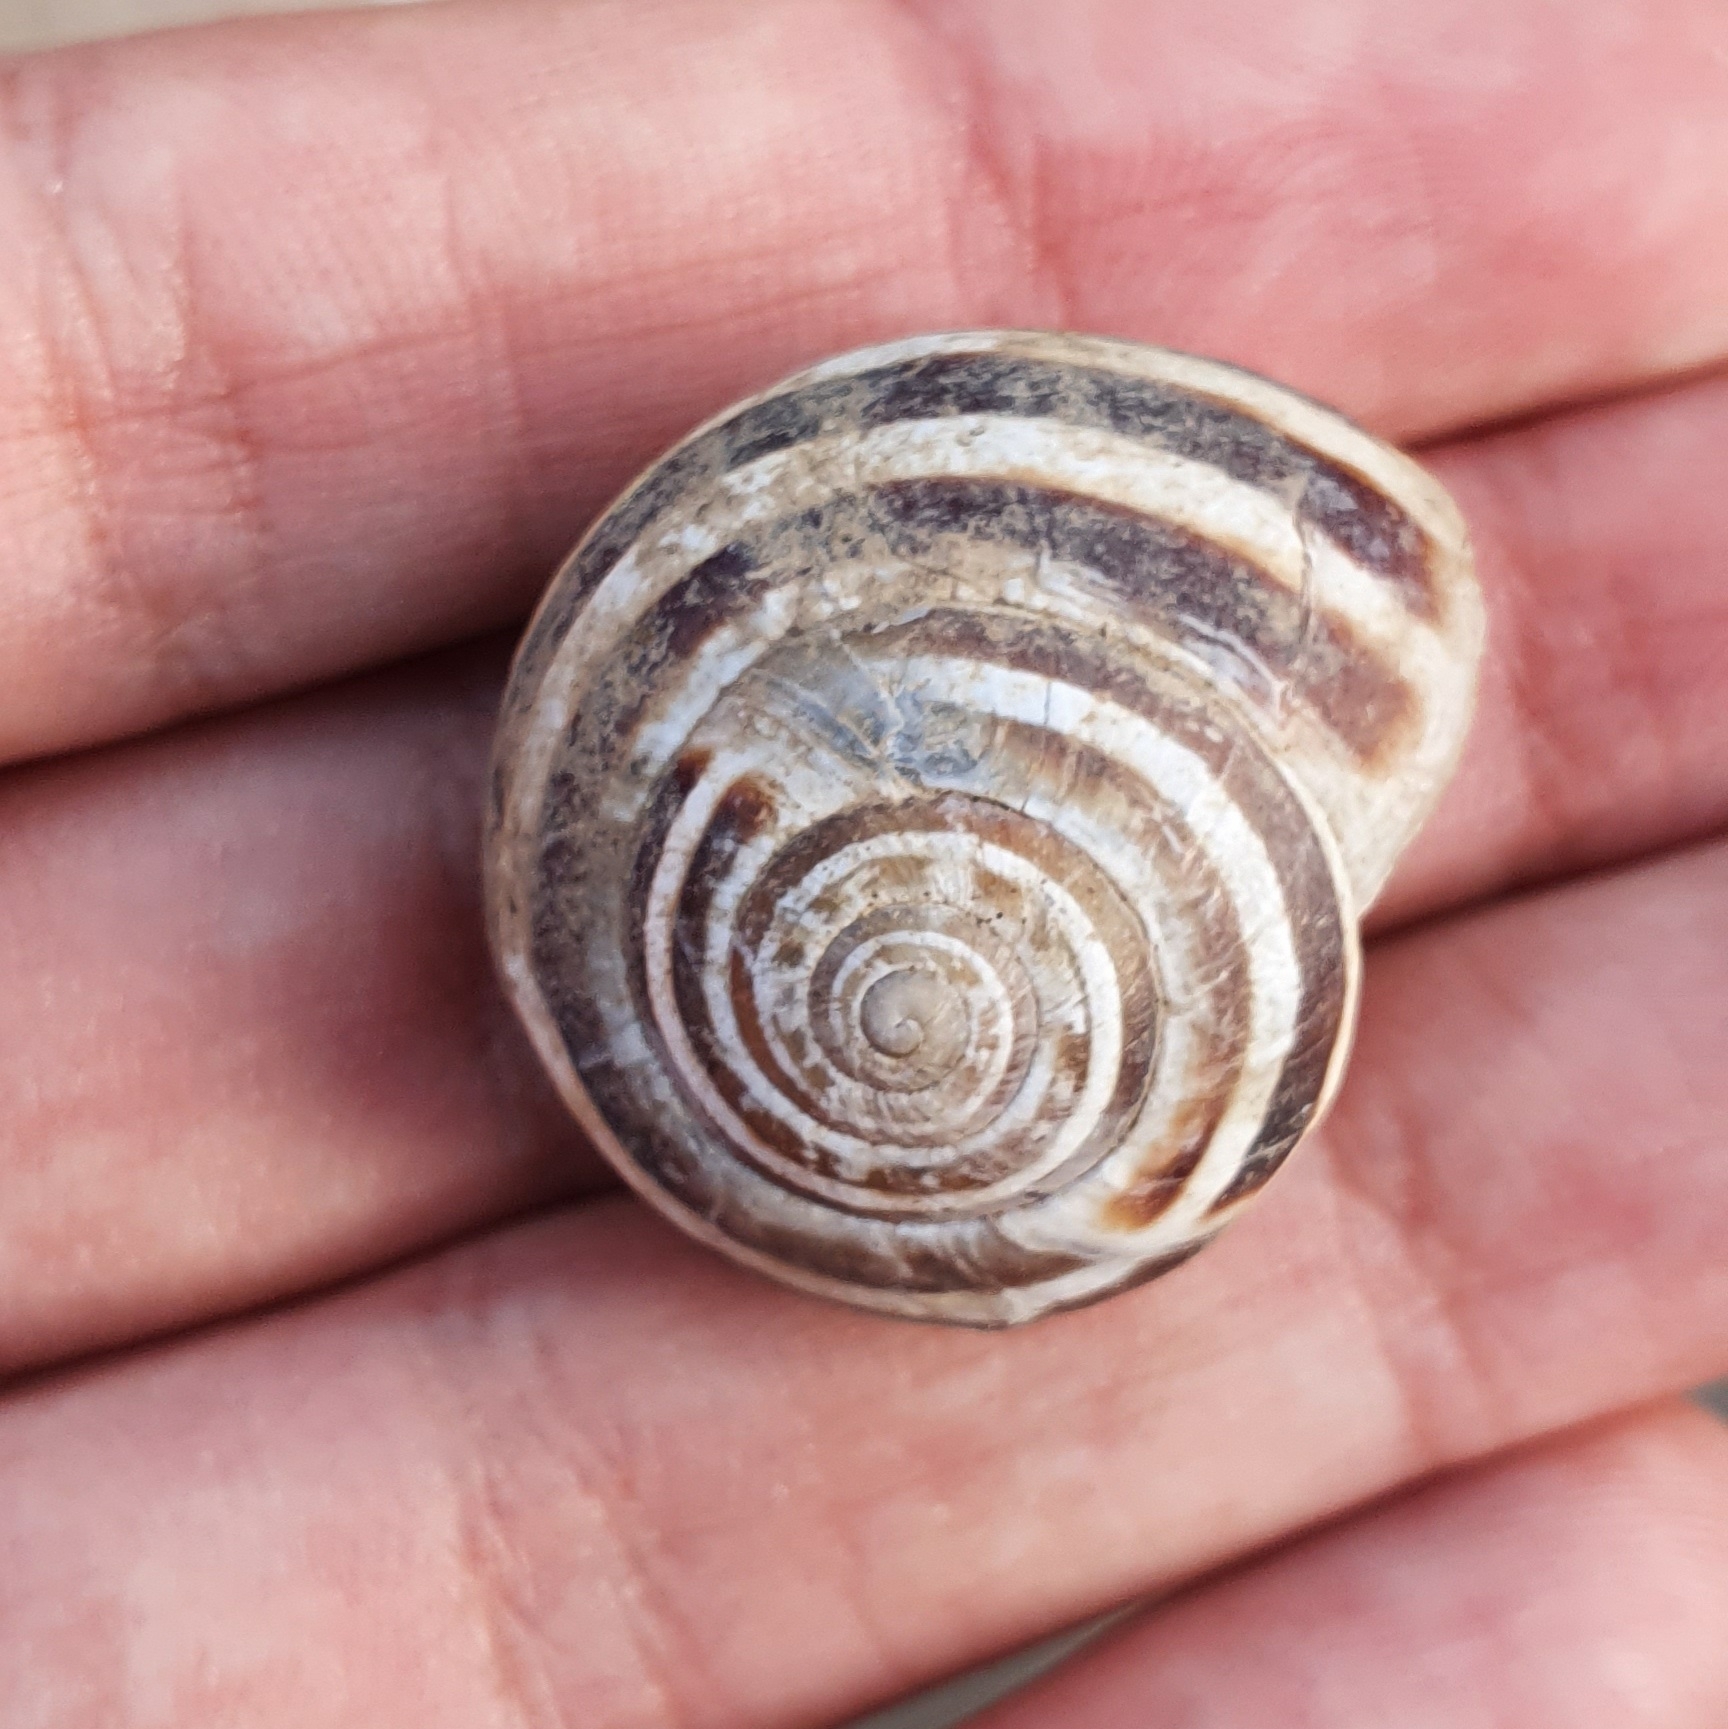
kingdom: Animalia
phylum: Mollusca
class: Gastropoda
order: Stylommatophora
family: Helicidae
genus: Eobania
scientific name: Eobania constantina
